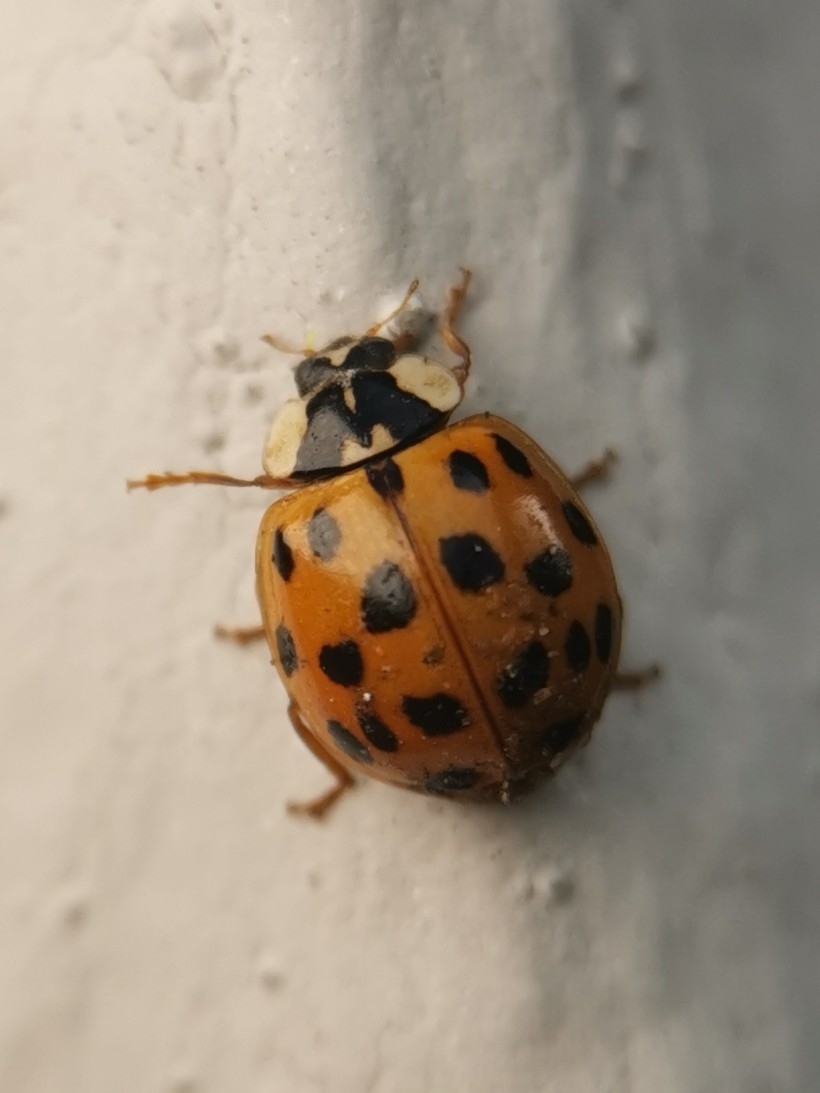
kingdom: Animalia
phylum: Arthropoda
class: Insecta
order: Coleoptera
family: Coccinellidae
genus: Harmonia
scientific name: Harmonia axyridis
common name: Harlequin ladybird
